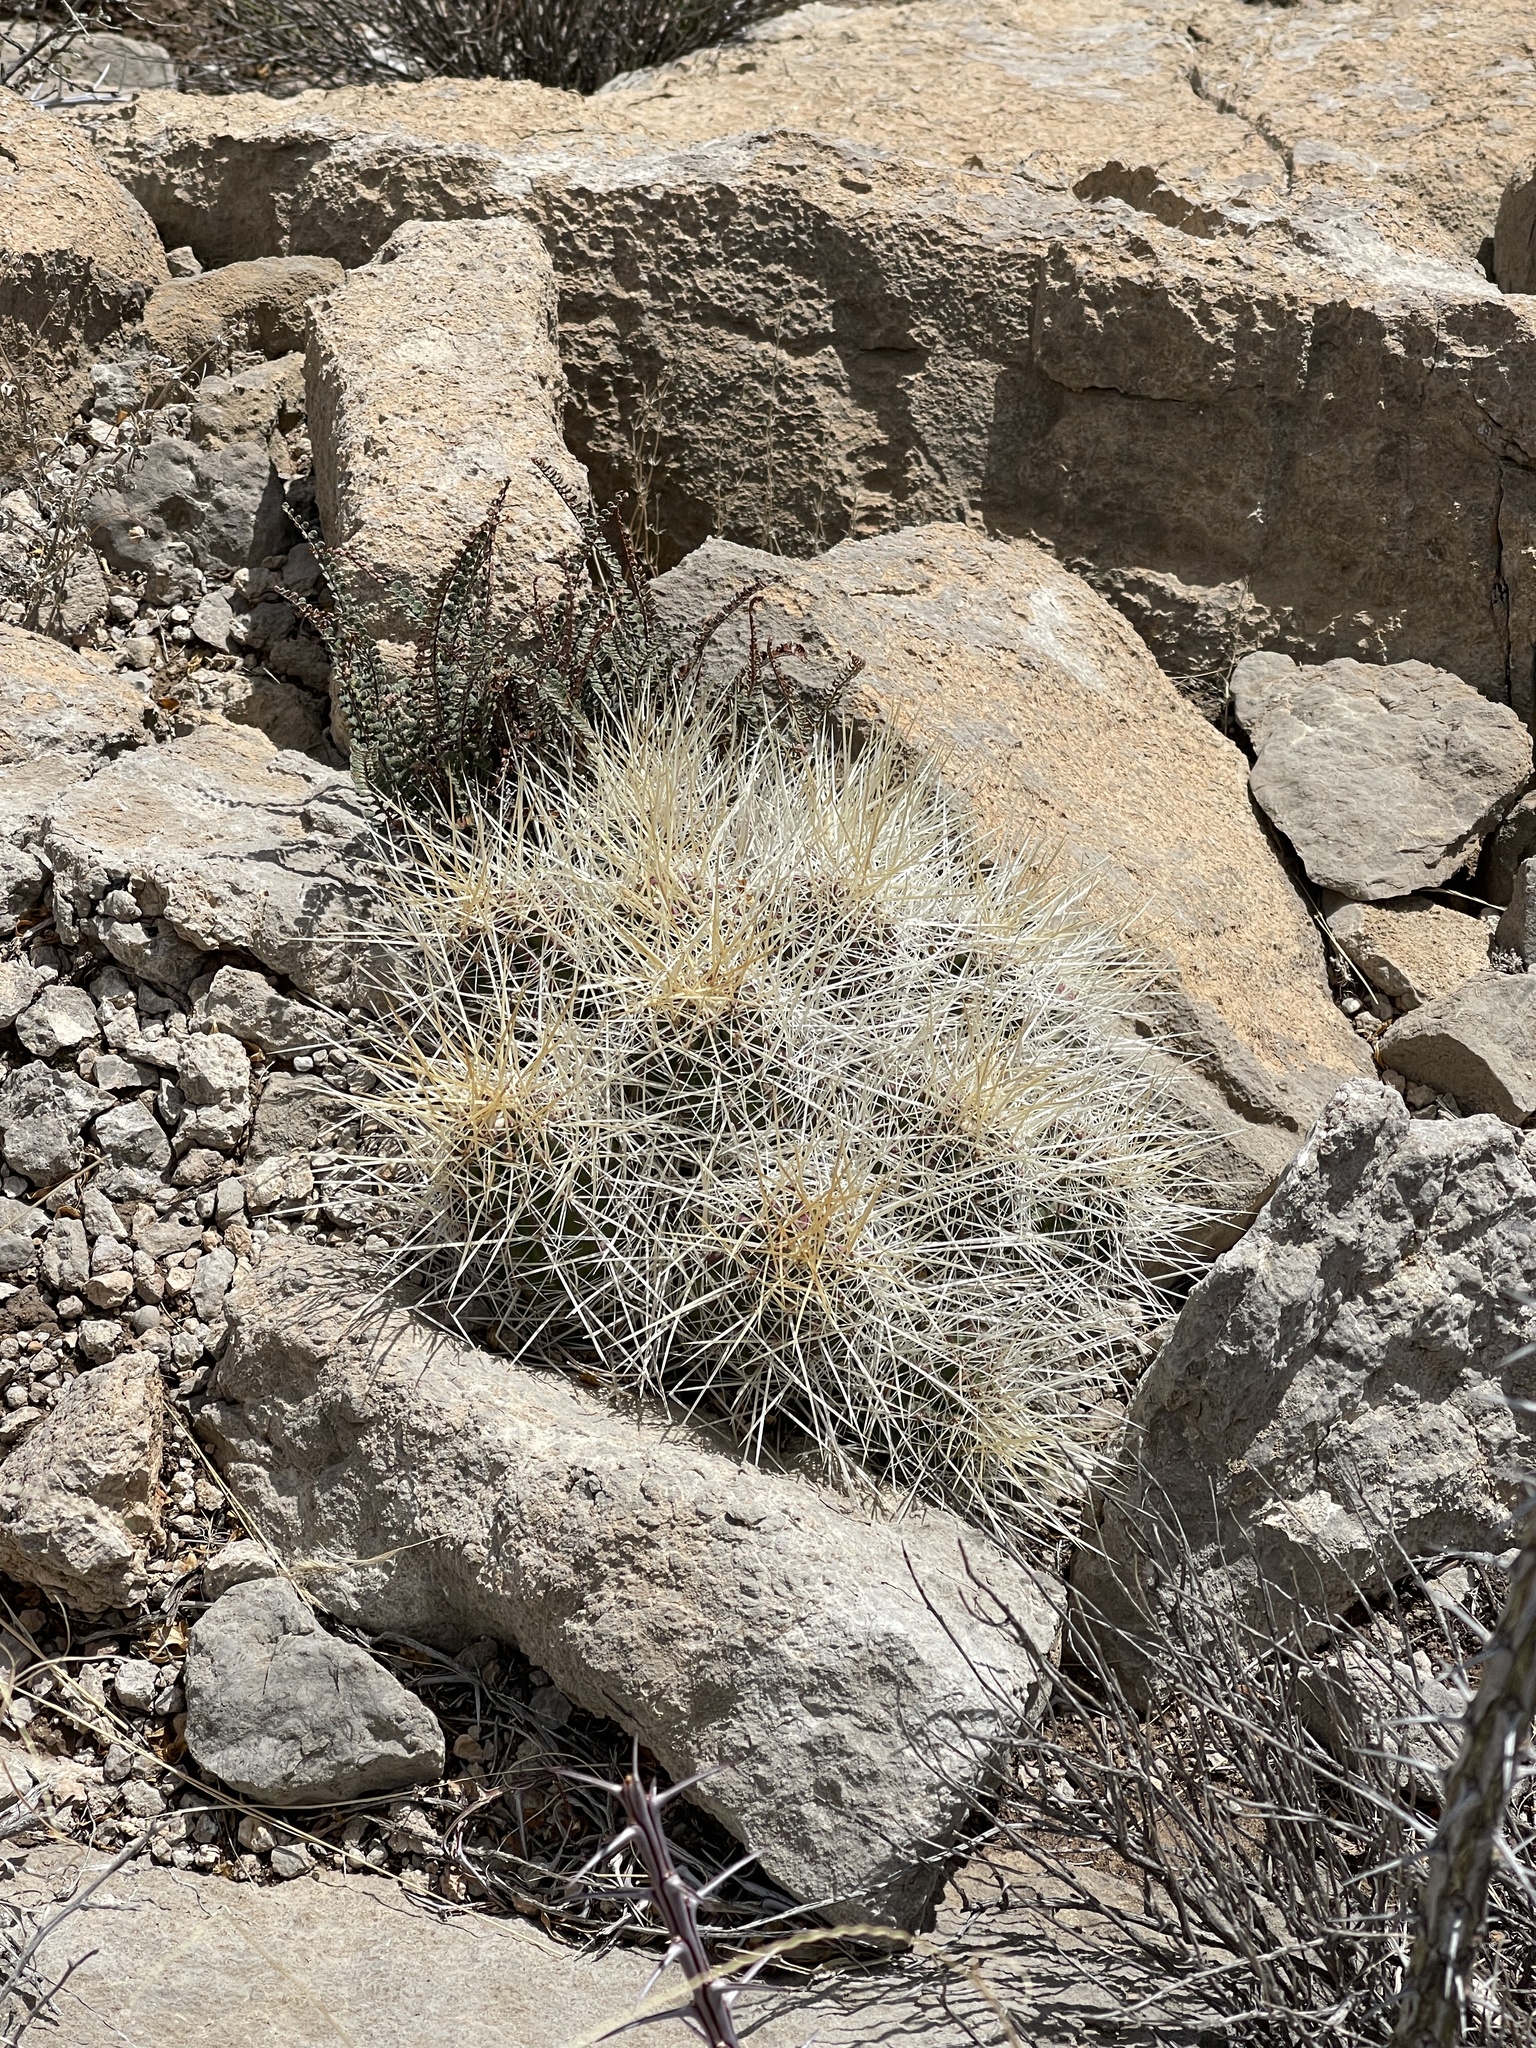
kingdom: Plantae
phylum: Tracheophyta
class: Magnoliopsida
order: Caryophyllales
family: Cactaceae
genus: Echinocereus
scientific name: Echinocereus stramineus
